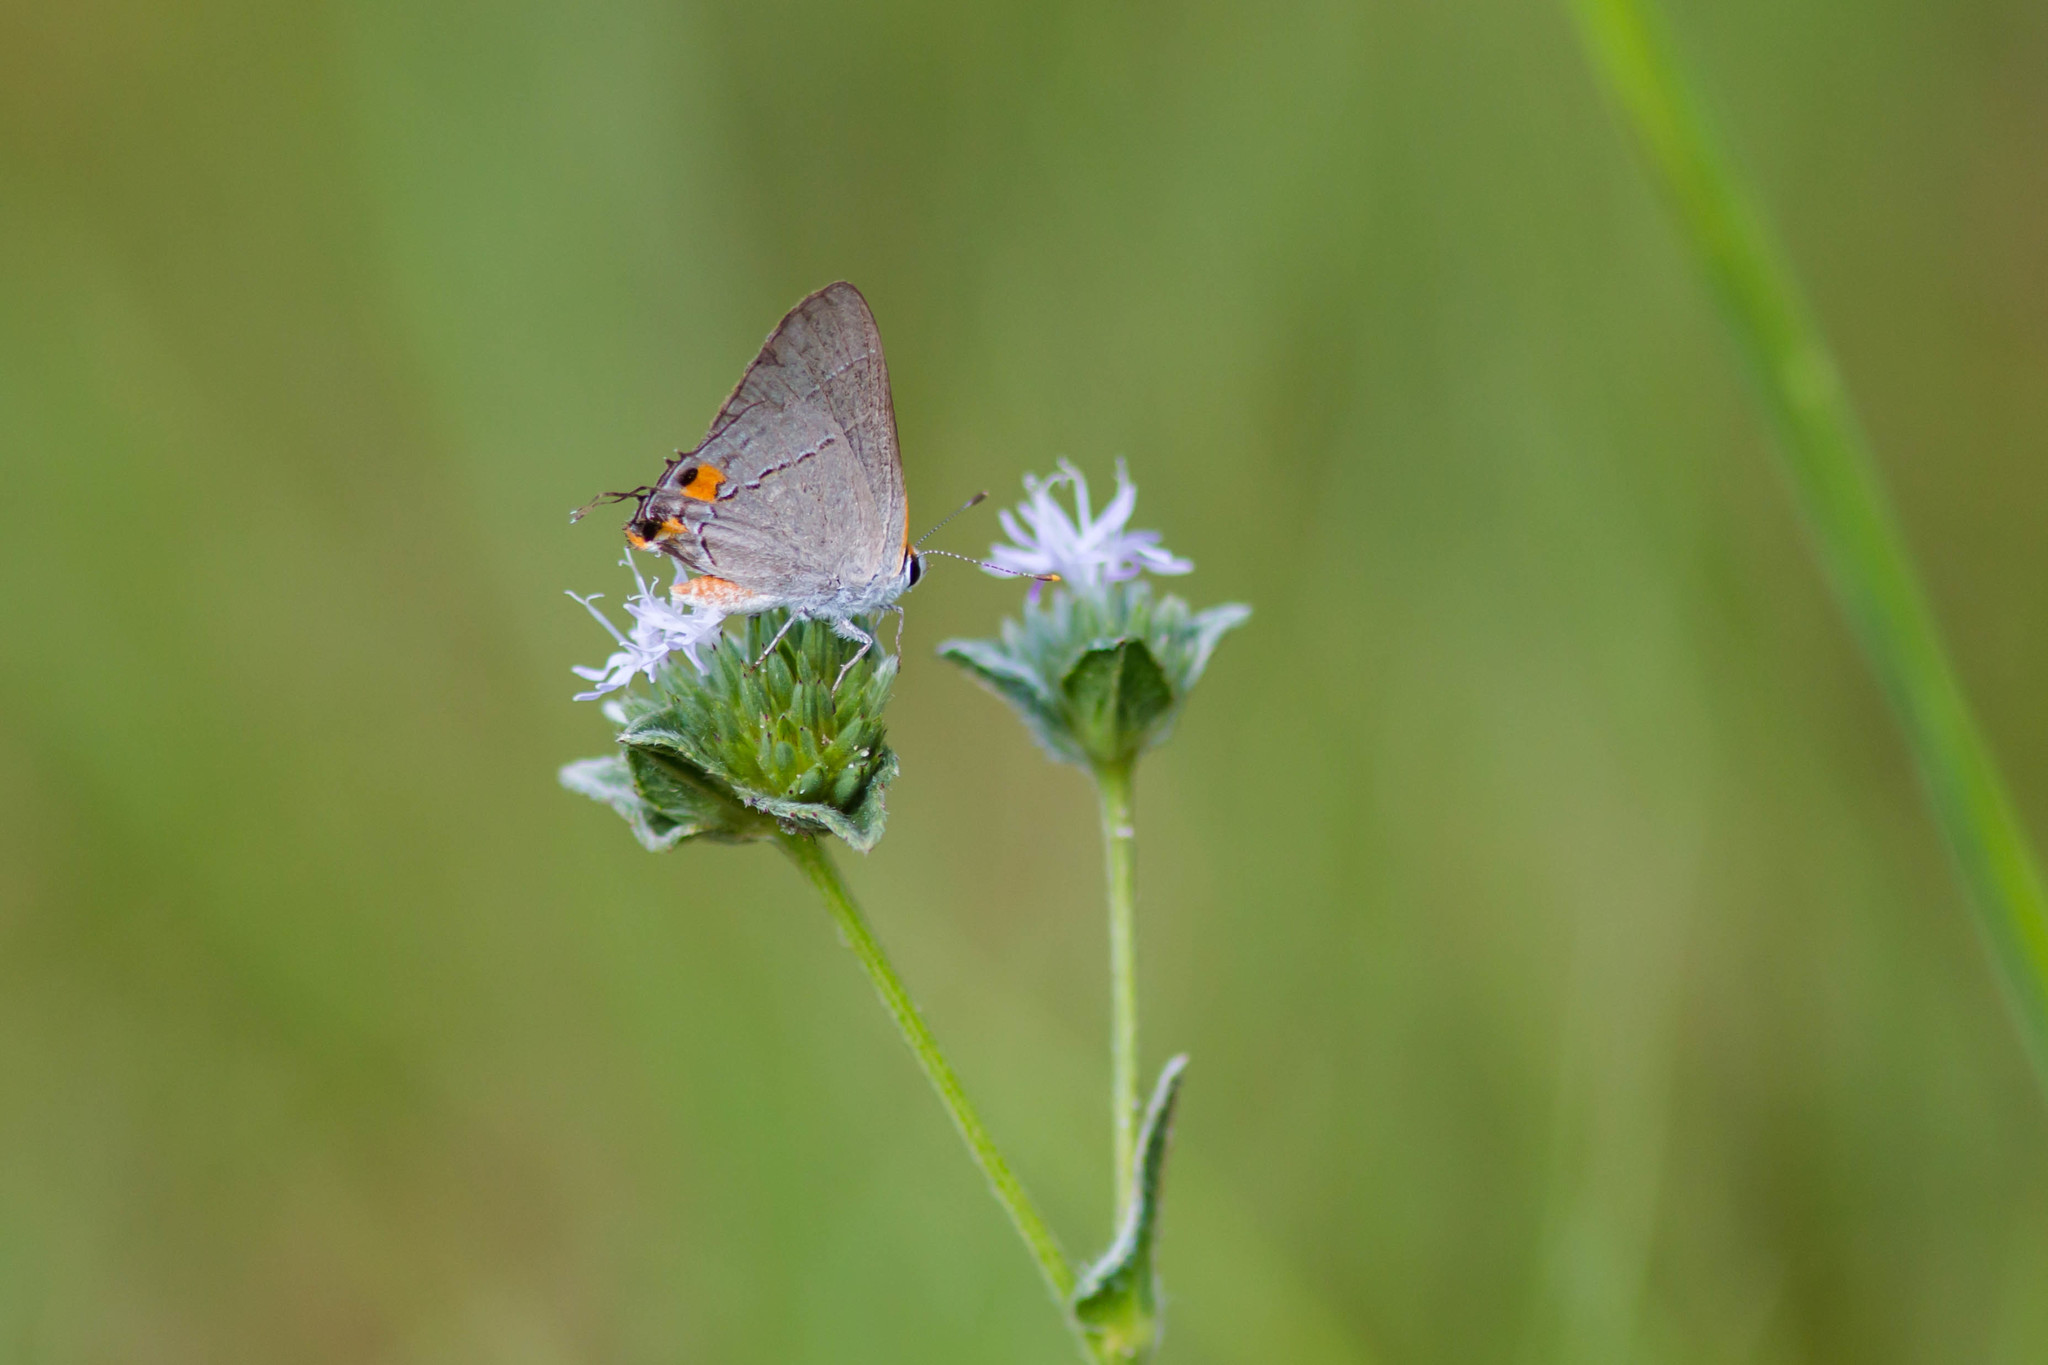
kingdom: Animalia
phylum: Arthropoda
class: Insecta
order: Lepidoptera
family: Lycaenidae
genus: Strymon
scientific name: Strymon melinus
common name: Gray hairstreak
